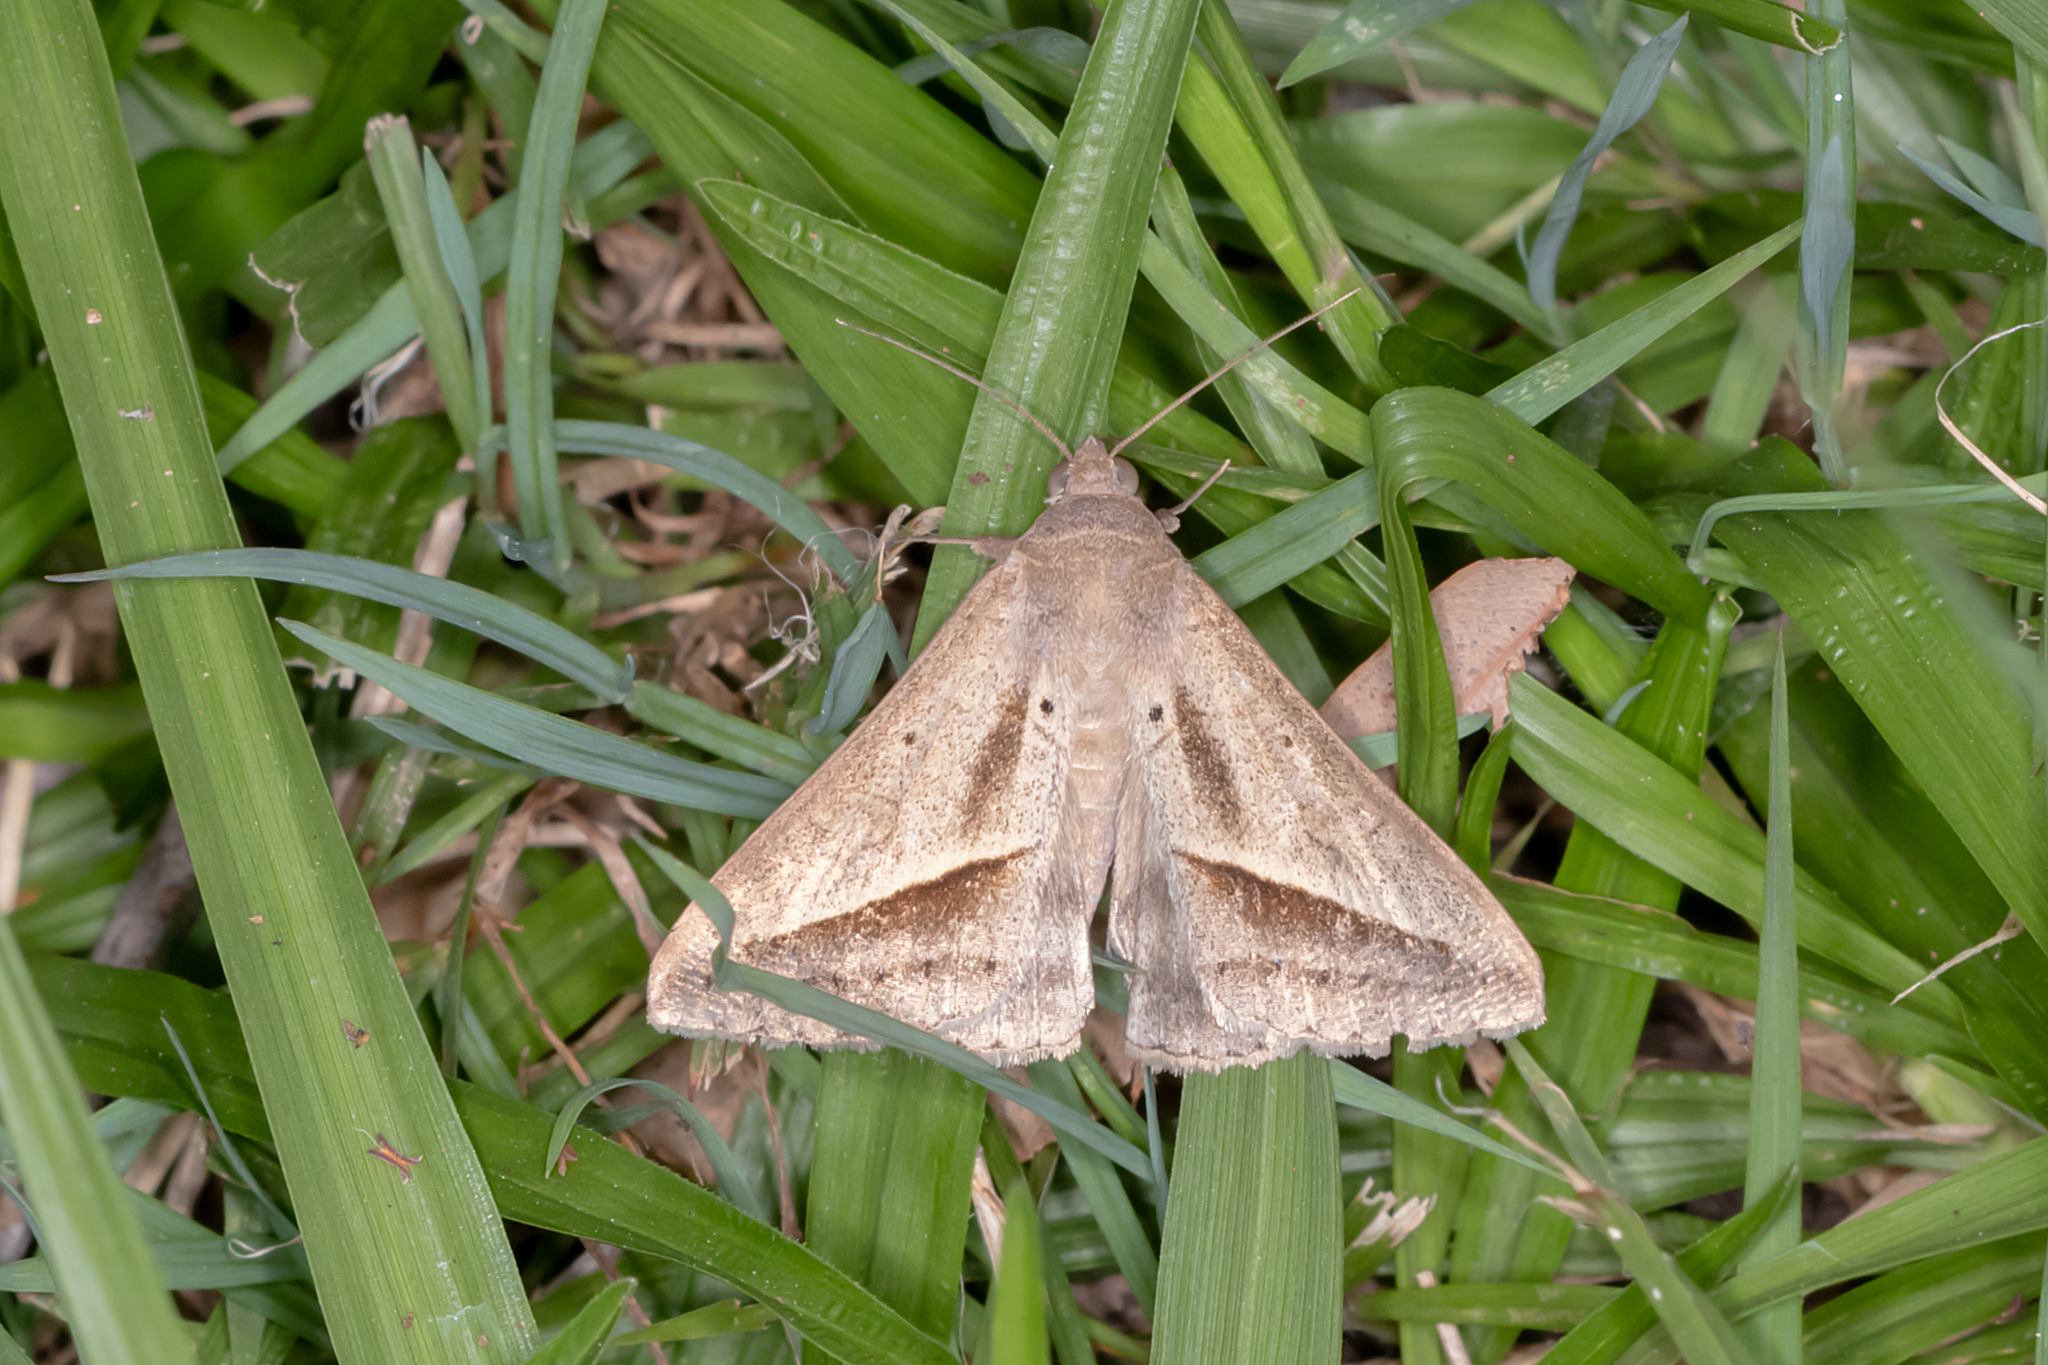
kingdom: Animalia
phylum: Arthropoda
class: Insecta
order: Lepidoptera
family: Erebidae
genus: Mocis
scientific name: Mocis frugalis
